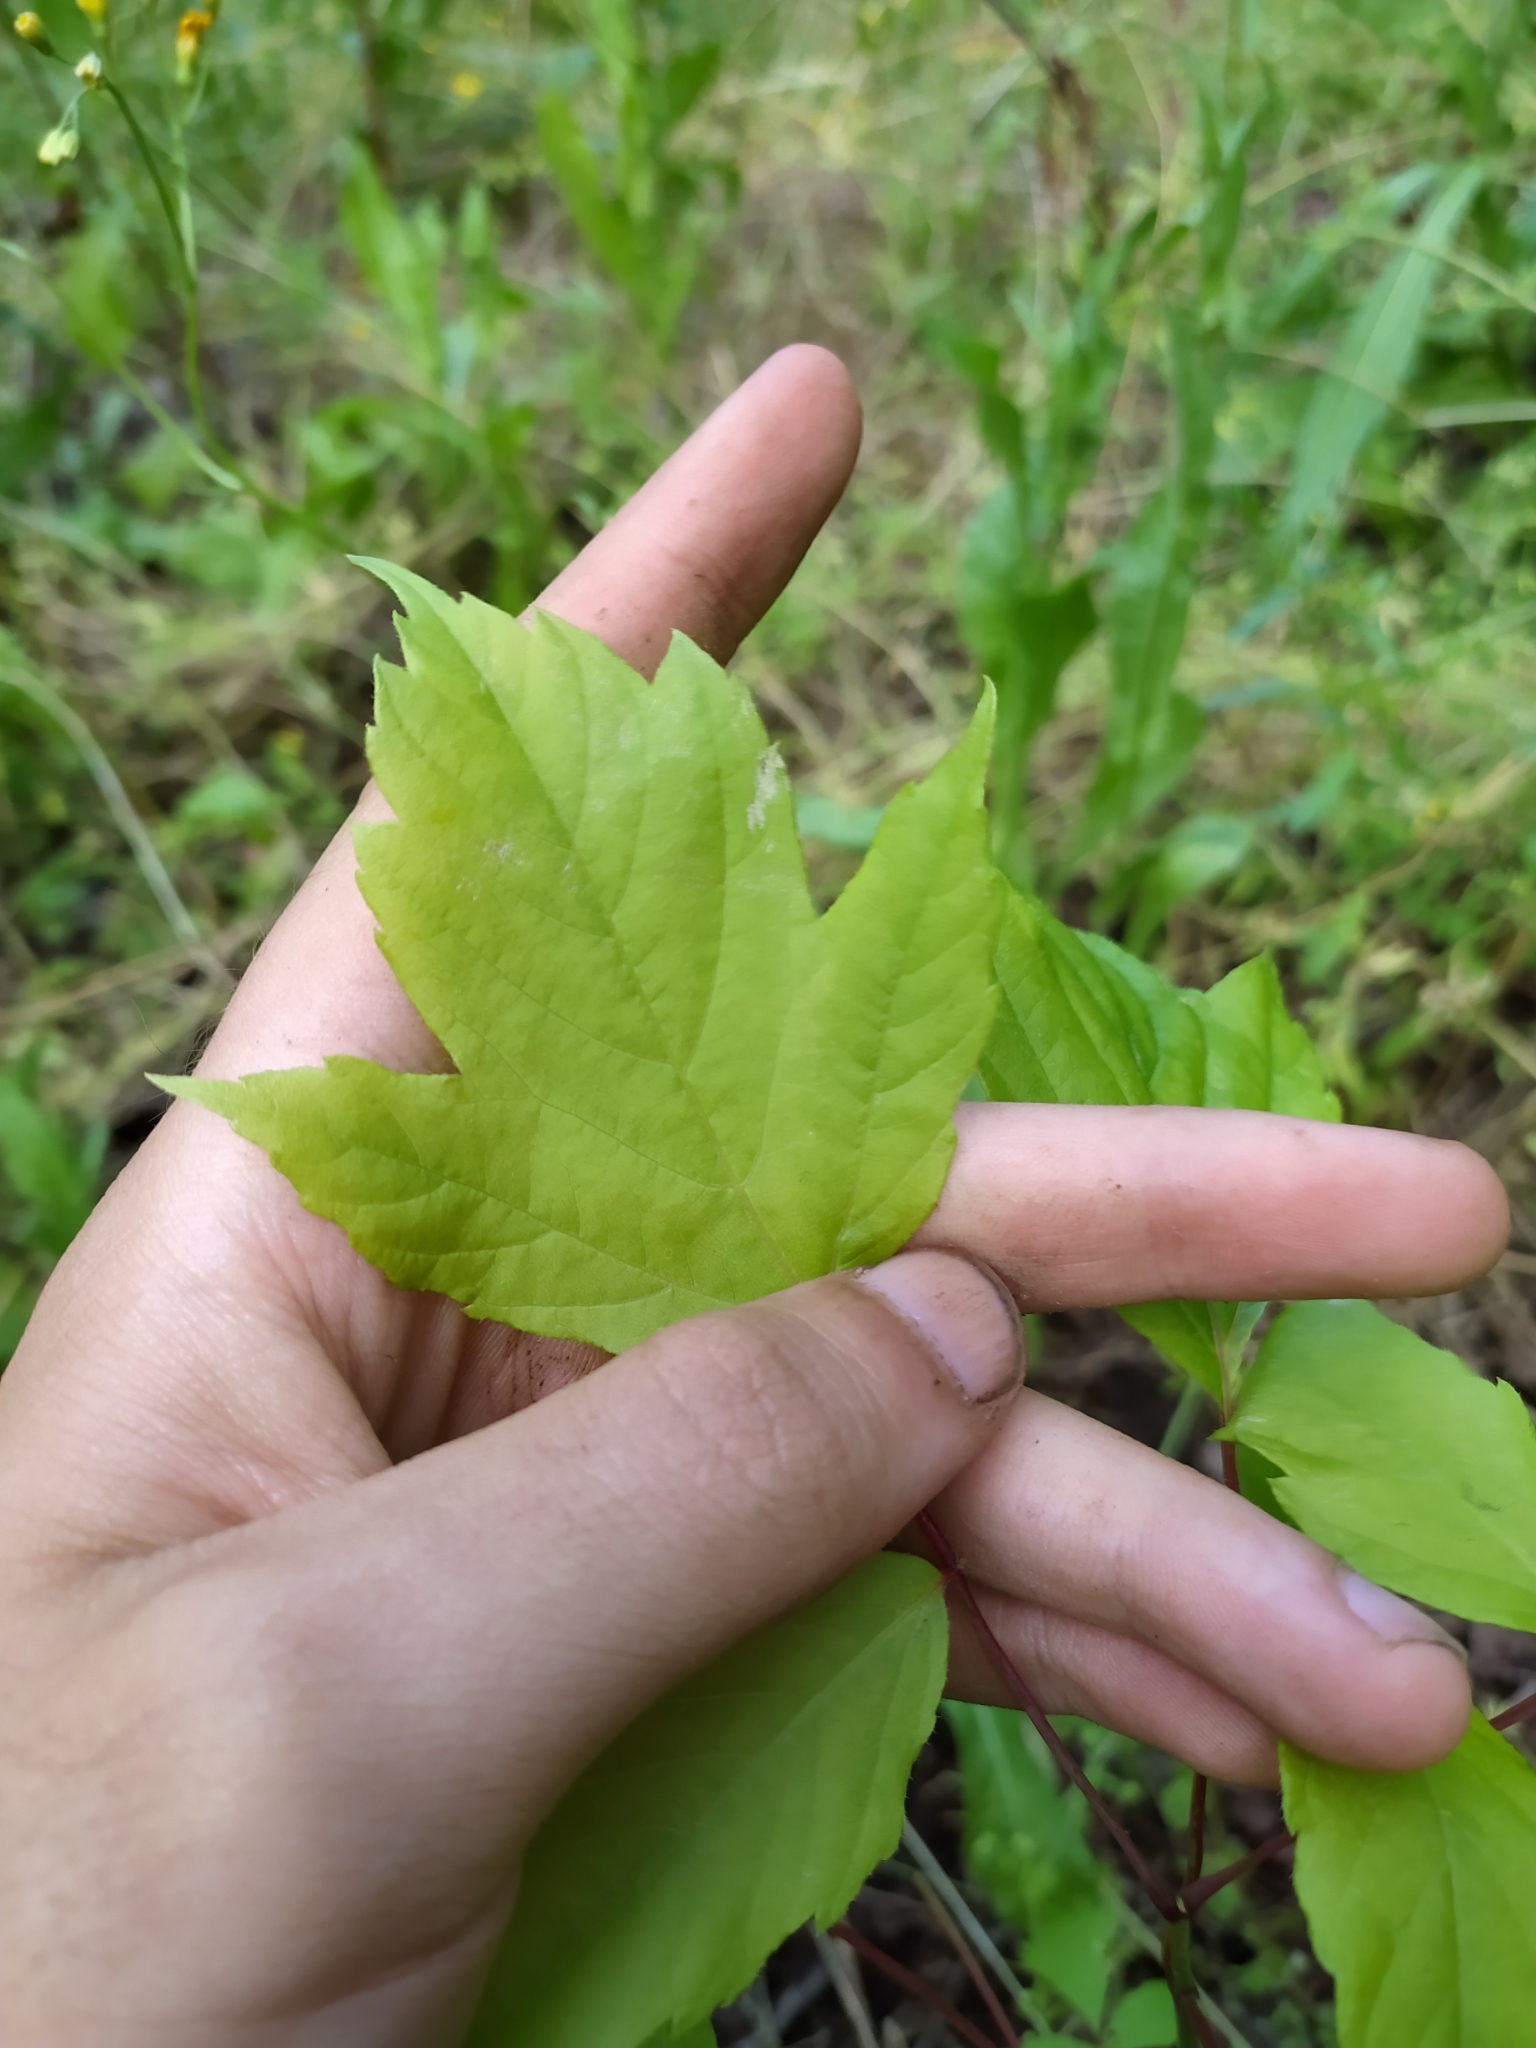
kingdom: Plantae
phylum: Tracheophyta
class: Magnoliopsida
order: Sapindales
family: Sapindaceae
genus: Acer
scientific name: Acer negundo
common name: Ashleaf maple
